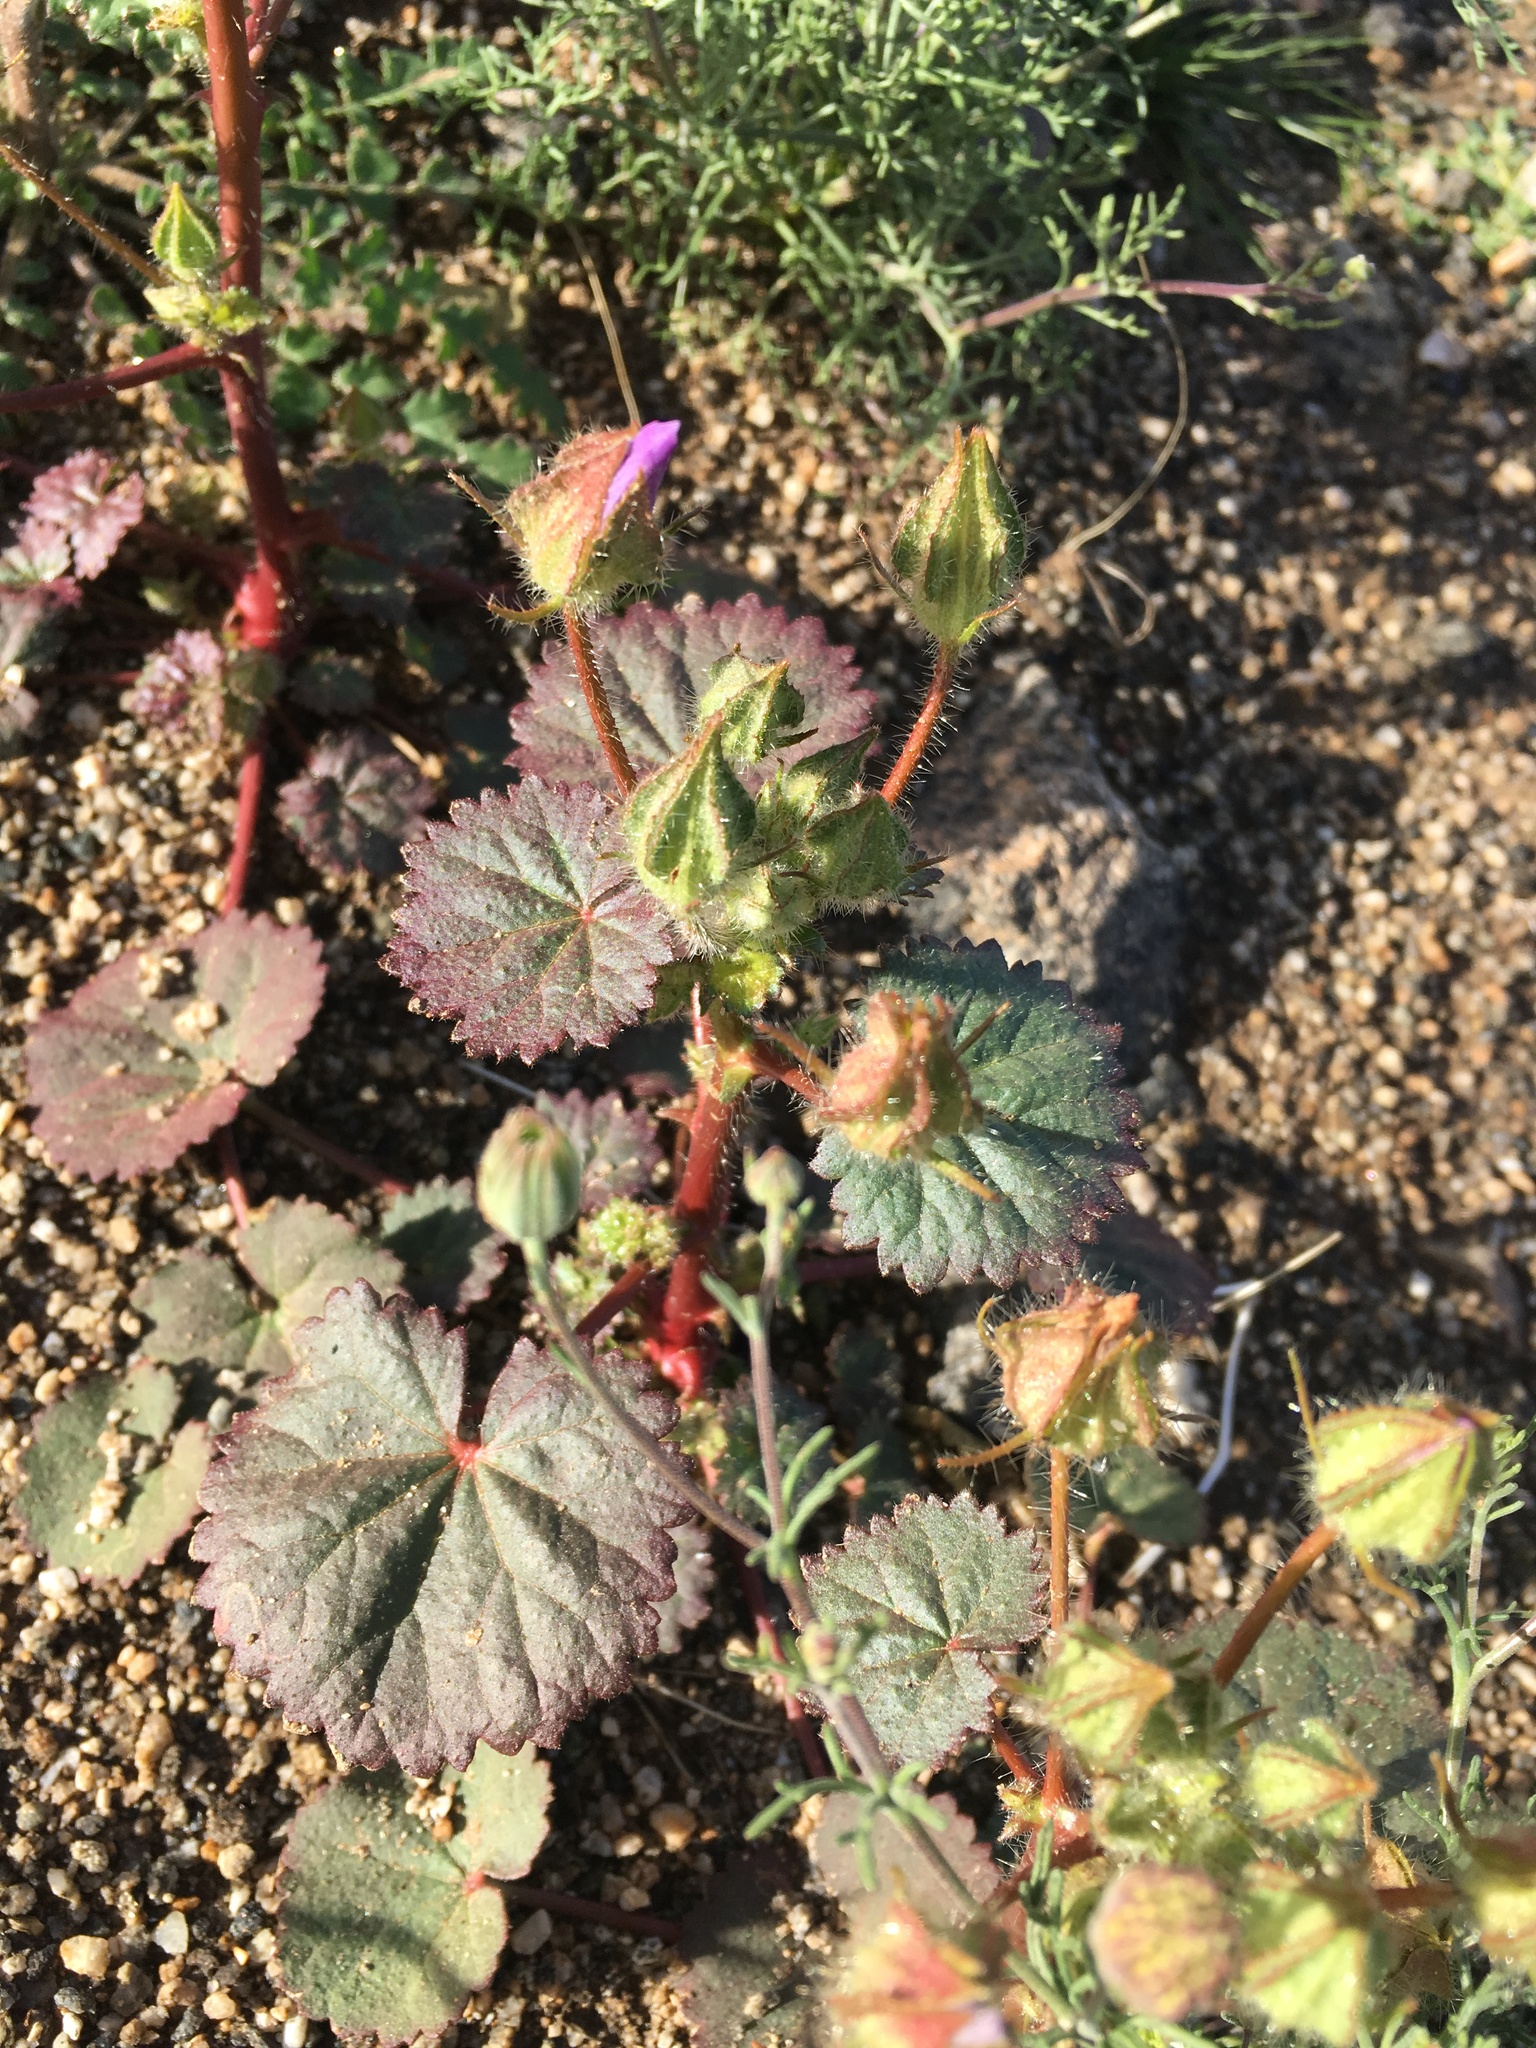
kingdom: Plantae
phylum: Tracheophyta
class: Magnoliopsida
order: Malvales
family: Malvaceae
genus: Eremalche
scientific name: Eremalche rotundifolia
